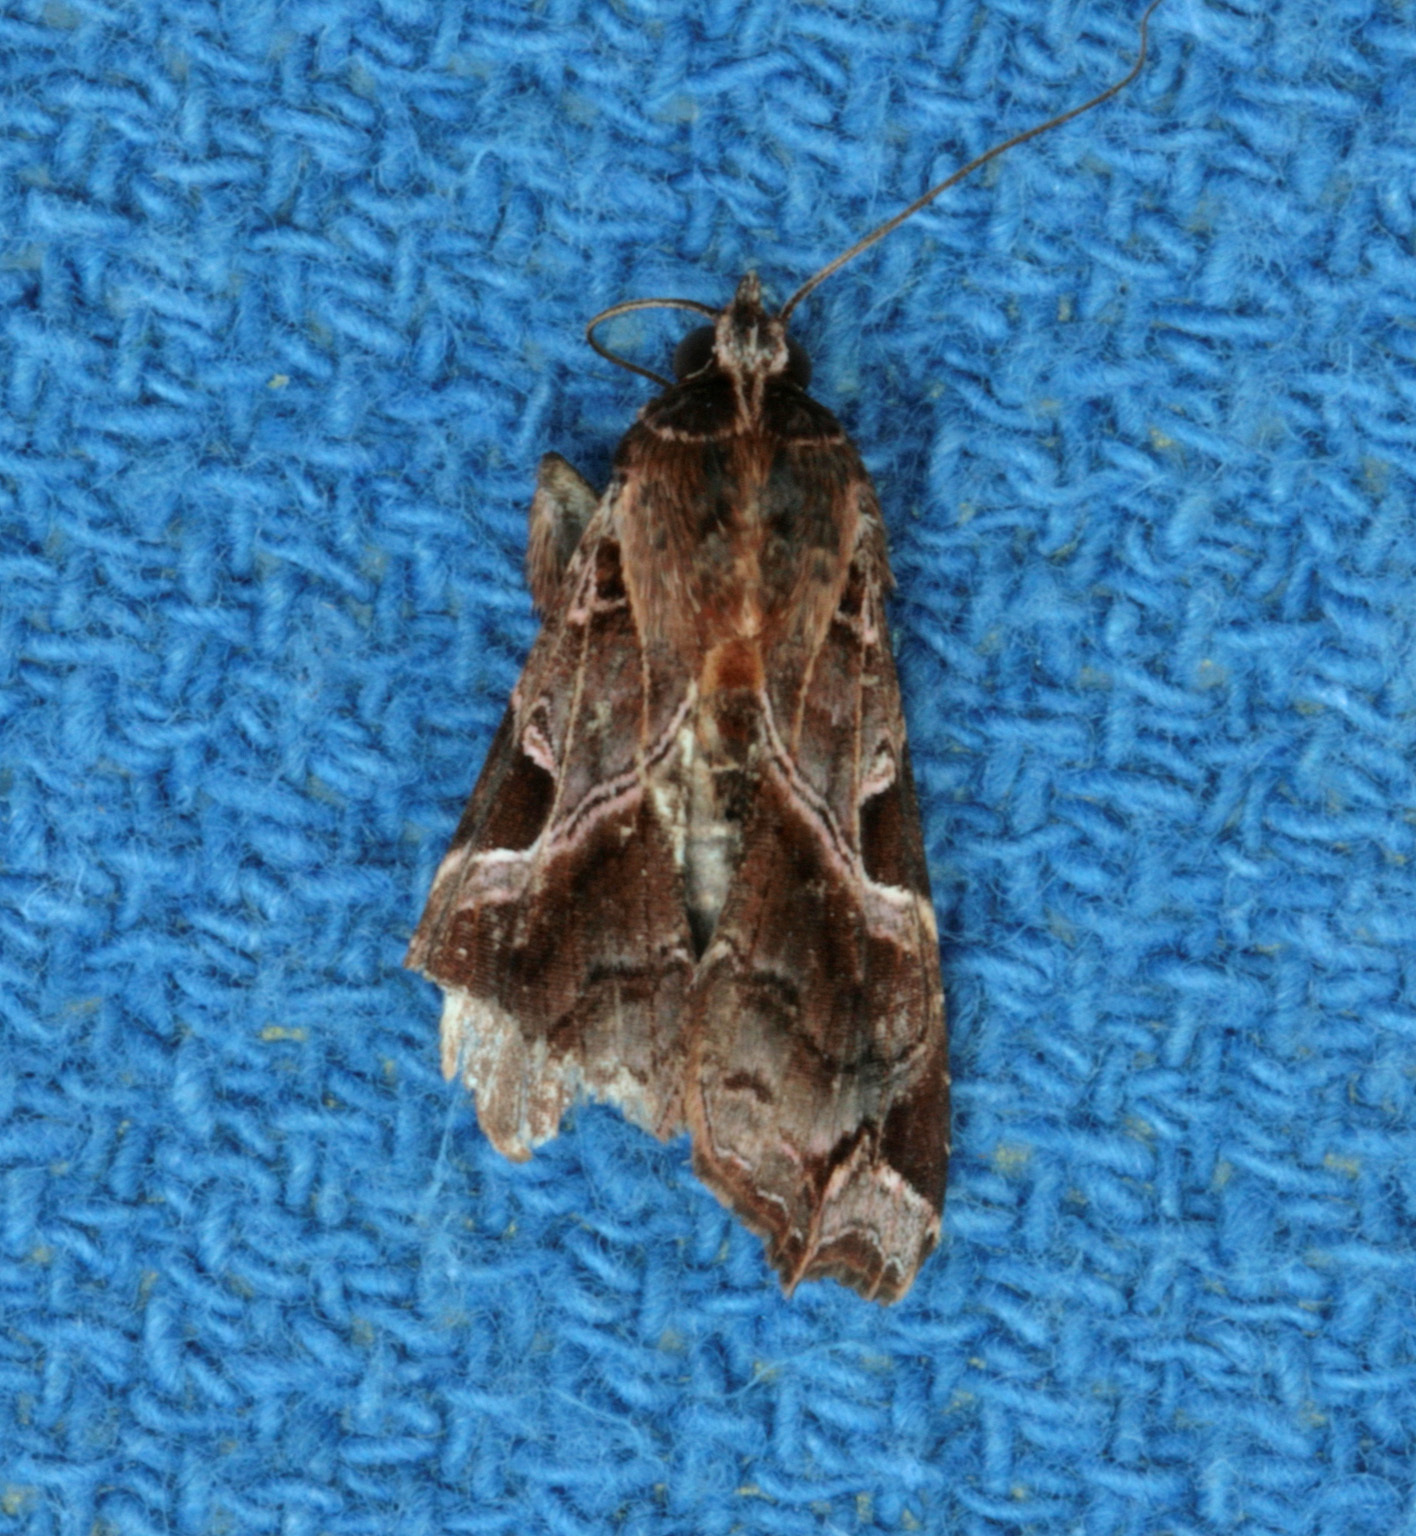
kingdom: Animalia
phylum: Arthropoda
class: Insecta
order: Lepidoptera
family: Noctuidae
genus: Callopistria
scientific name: Callopistria floridensis
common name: Florida fern moth
